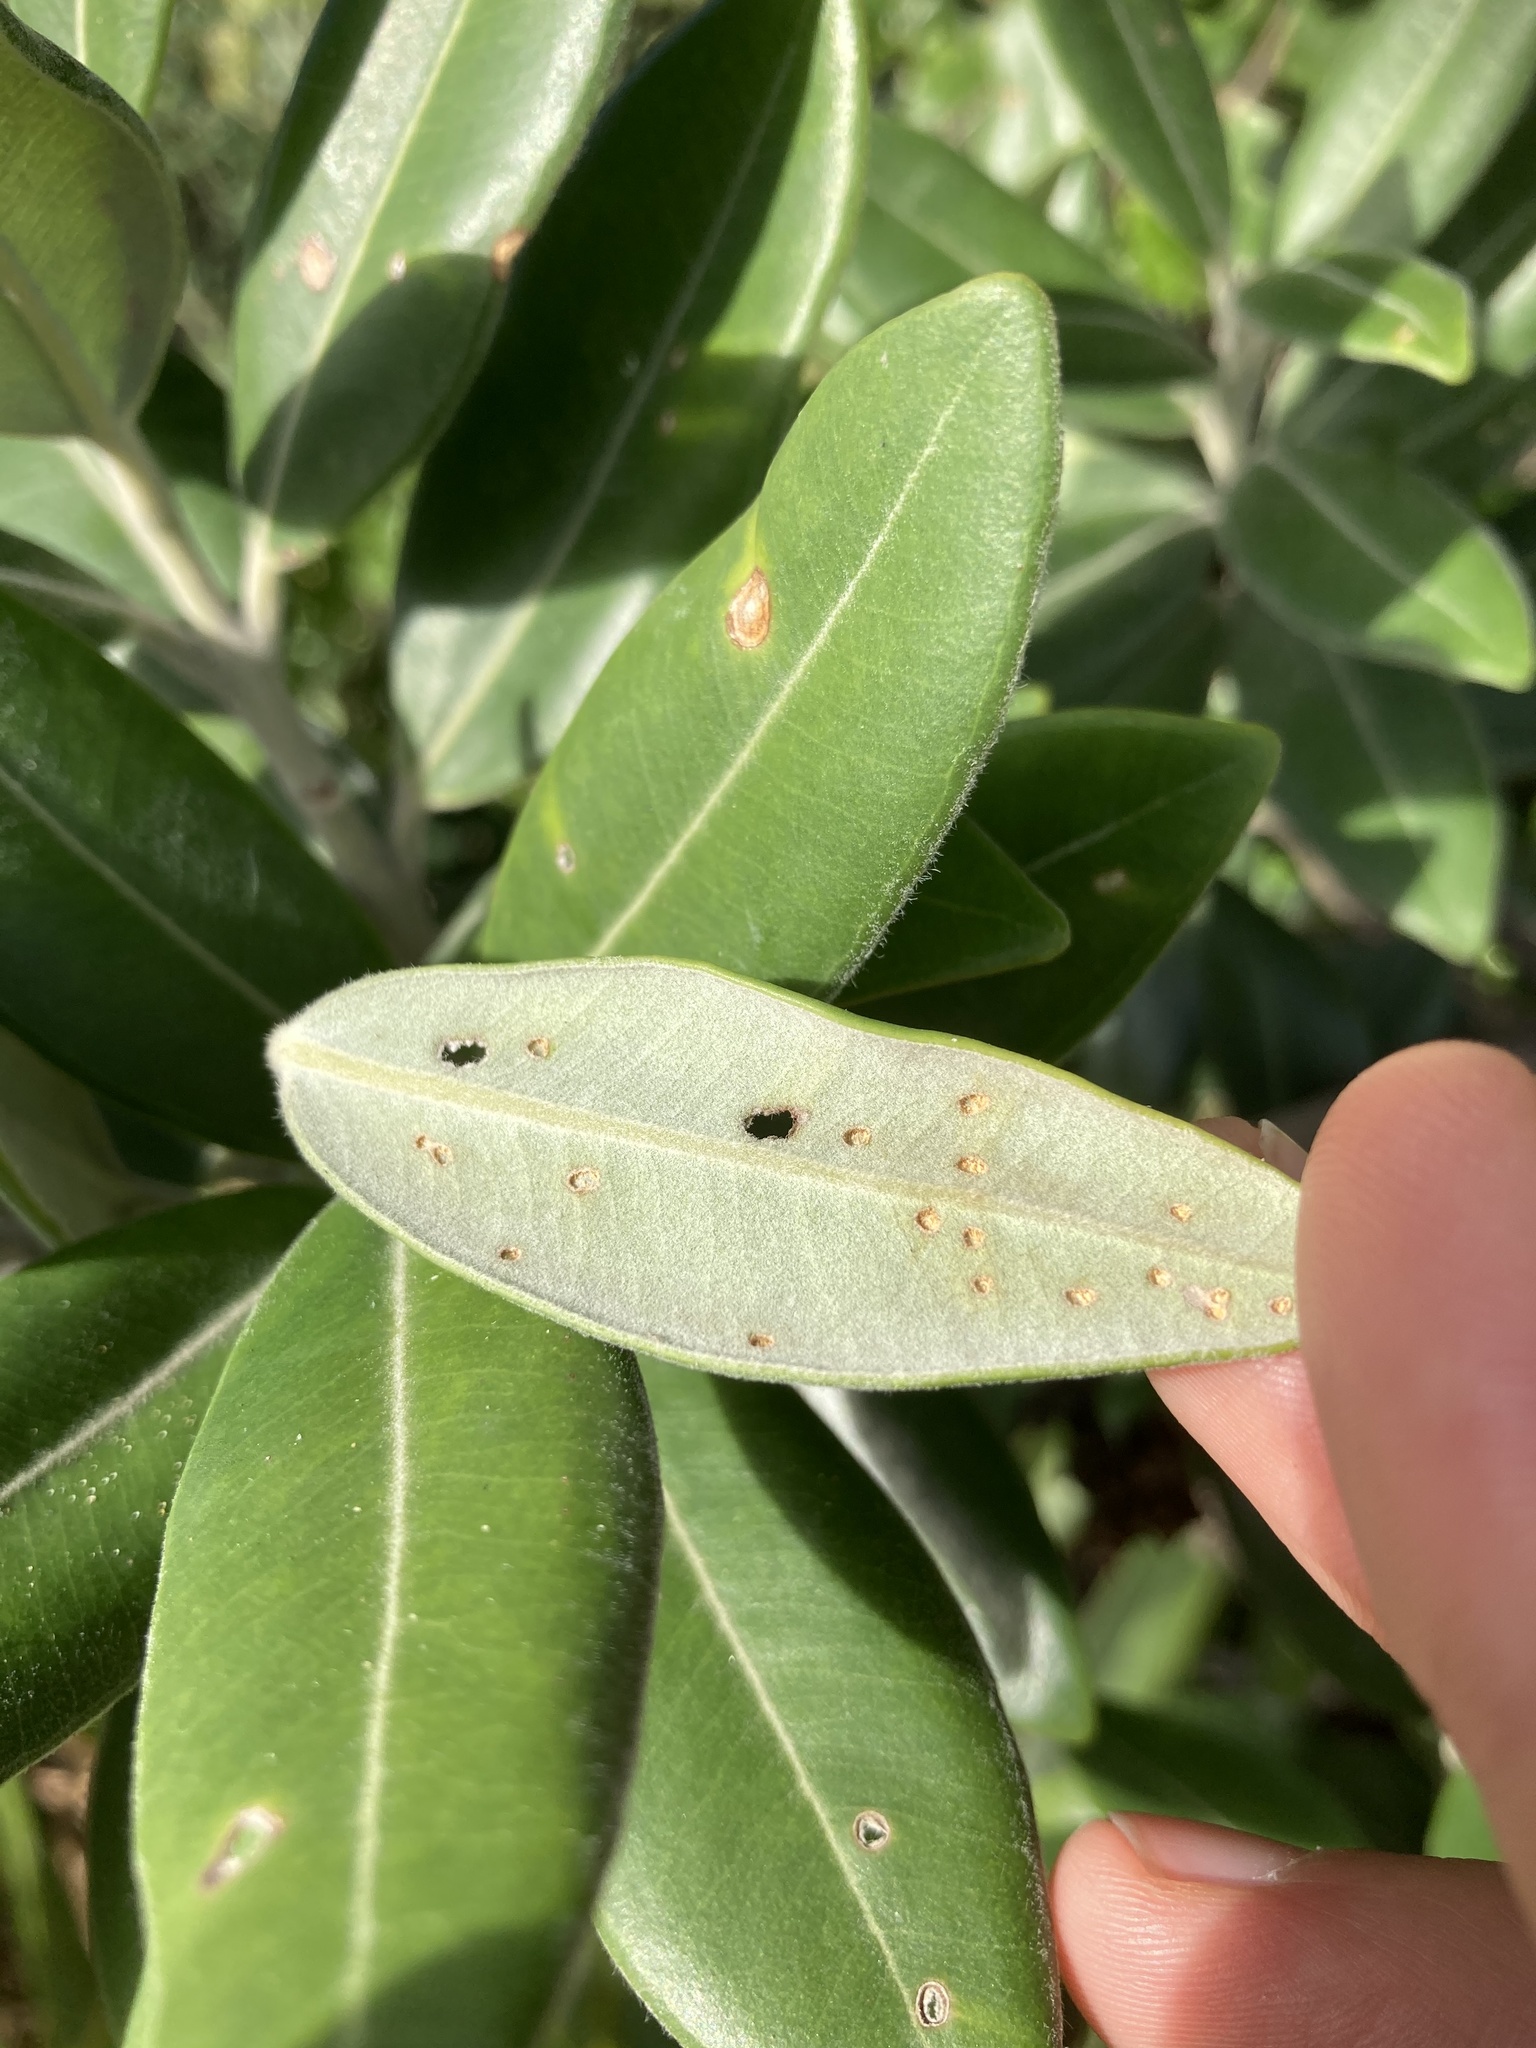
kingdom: Plantae
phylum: Tracheophyta
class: Magnoliopsida
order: Myrtales
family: Myrtaceae
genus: Metrosideros
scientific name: Metrosideros excelsa
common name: New zealand christmastree
